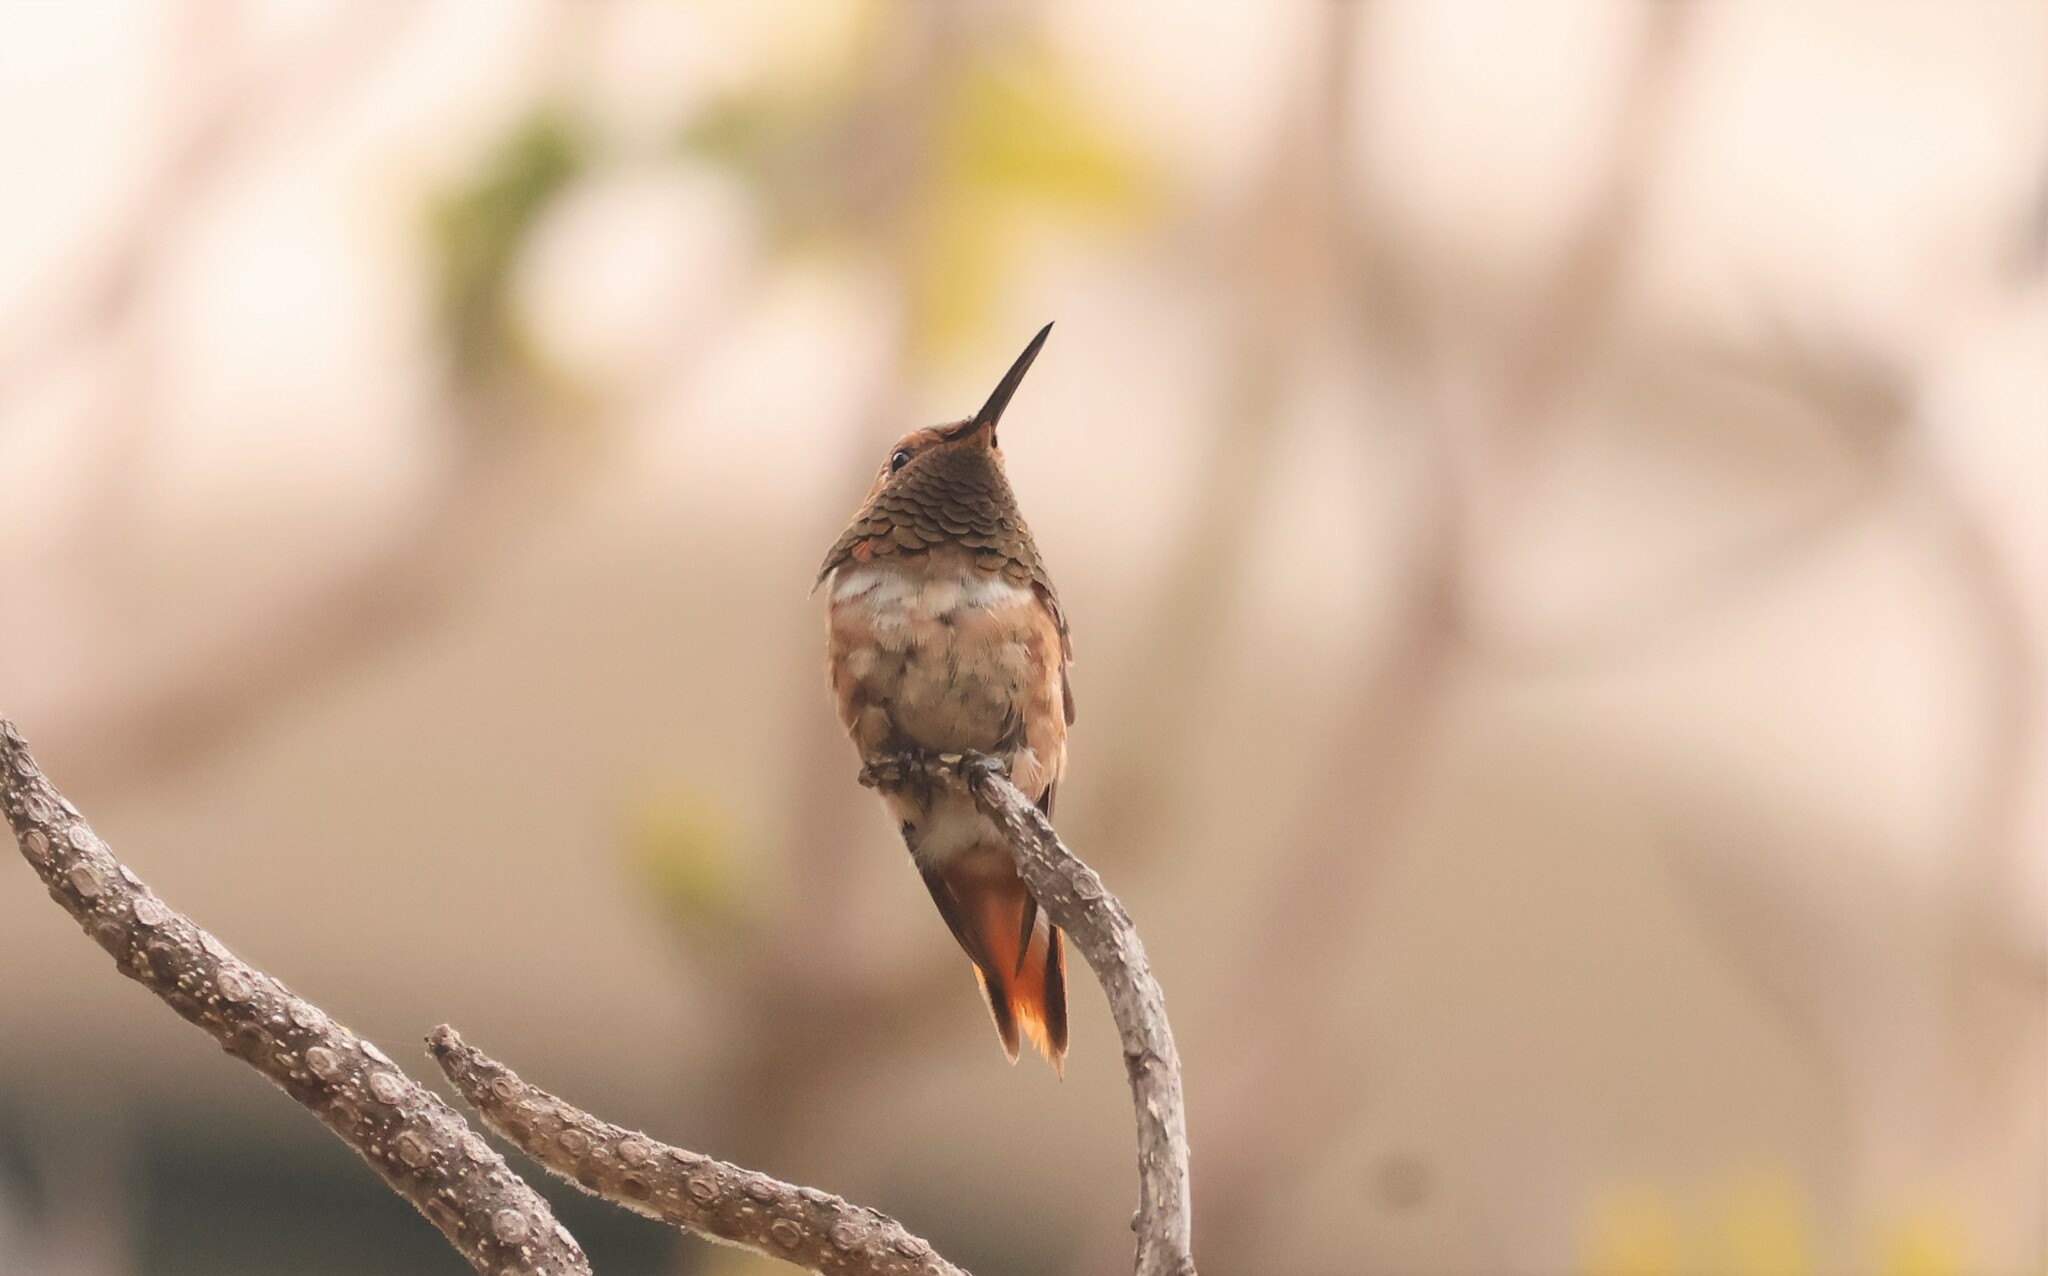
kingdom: Animalia
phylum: Chordata
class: Aves
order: Apodiformes
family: Trochilidae
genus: Selasphorus
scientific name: Selasphorus sasin
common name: Allen's hummingbird
